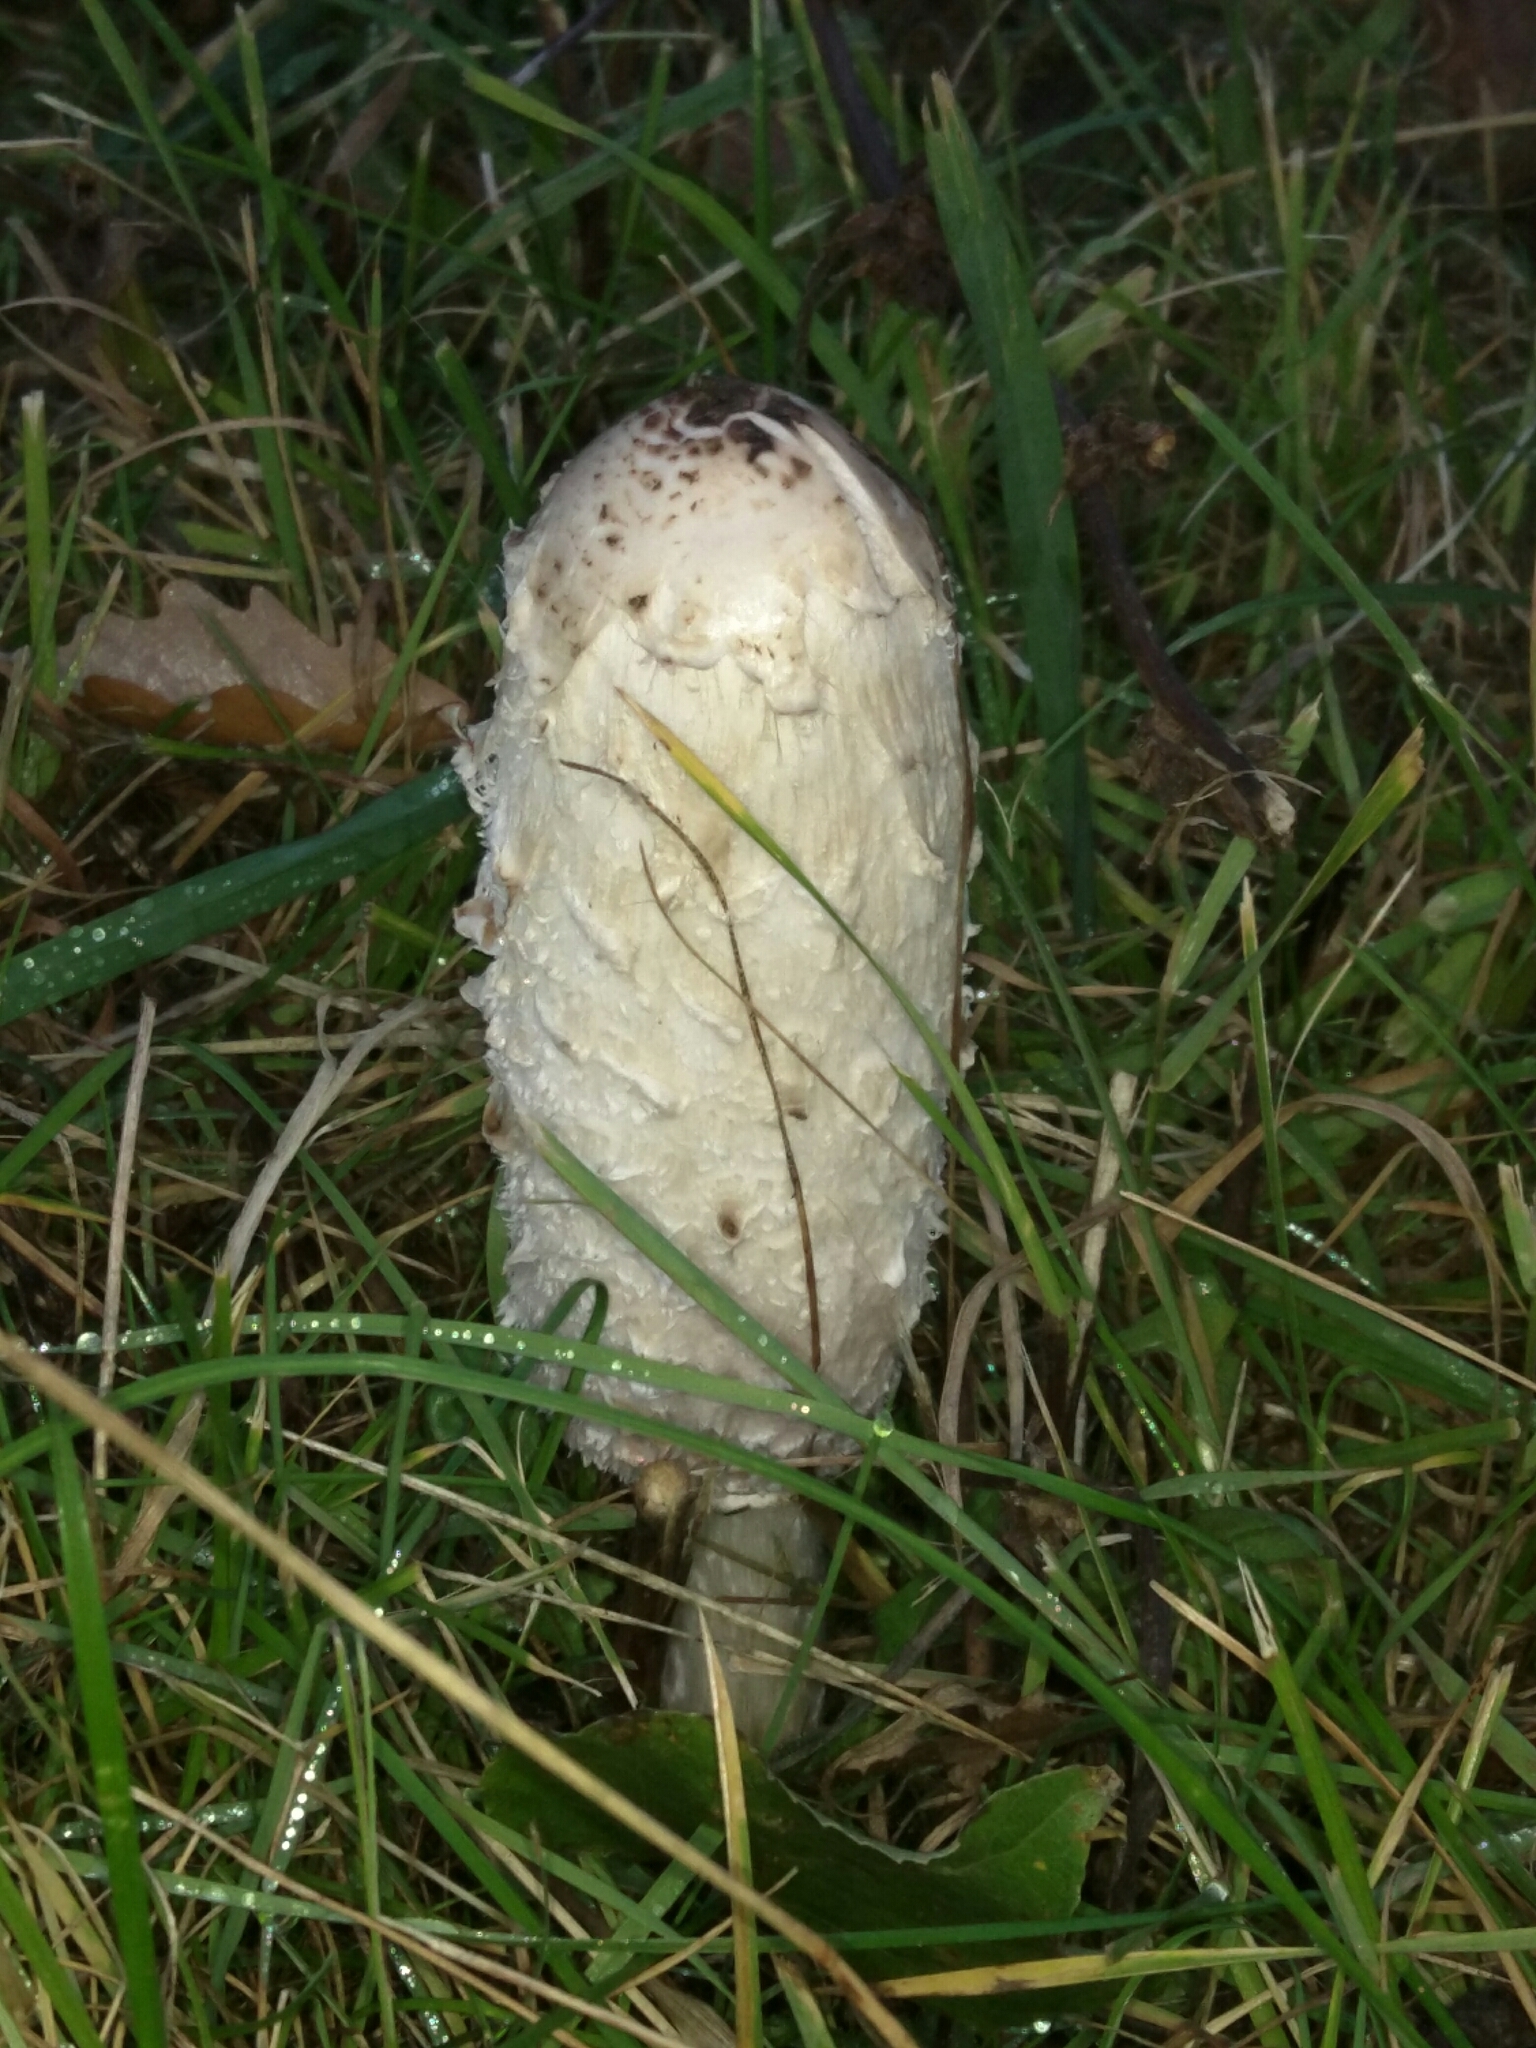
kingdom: Fungi
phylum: Basidiomycota
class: Agaricomycetes
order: Agaricales
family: Agaricaceae
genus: Coprinus
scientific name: Coprinus comatus
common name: Lawyer's wig
